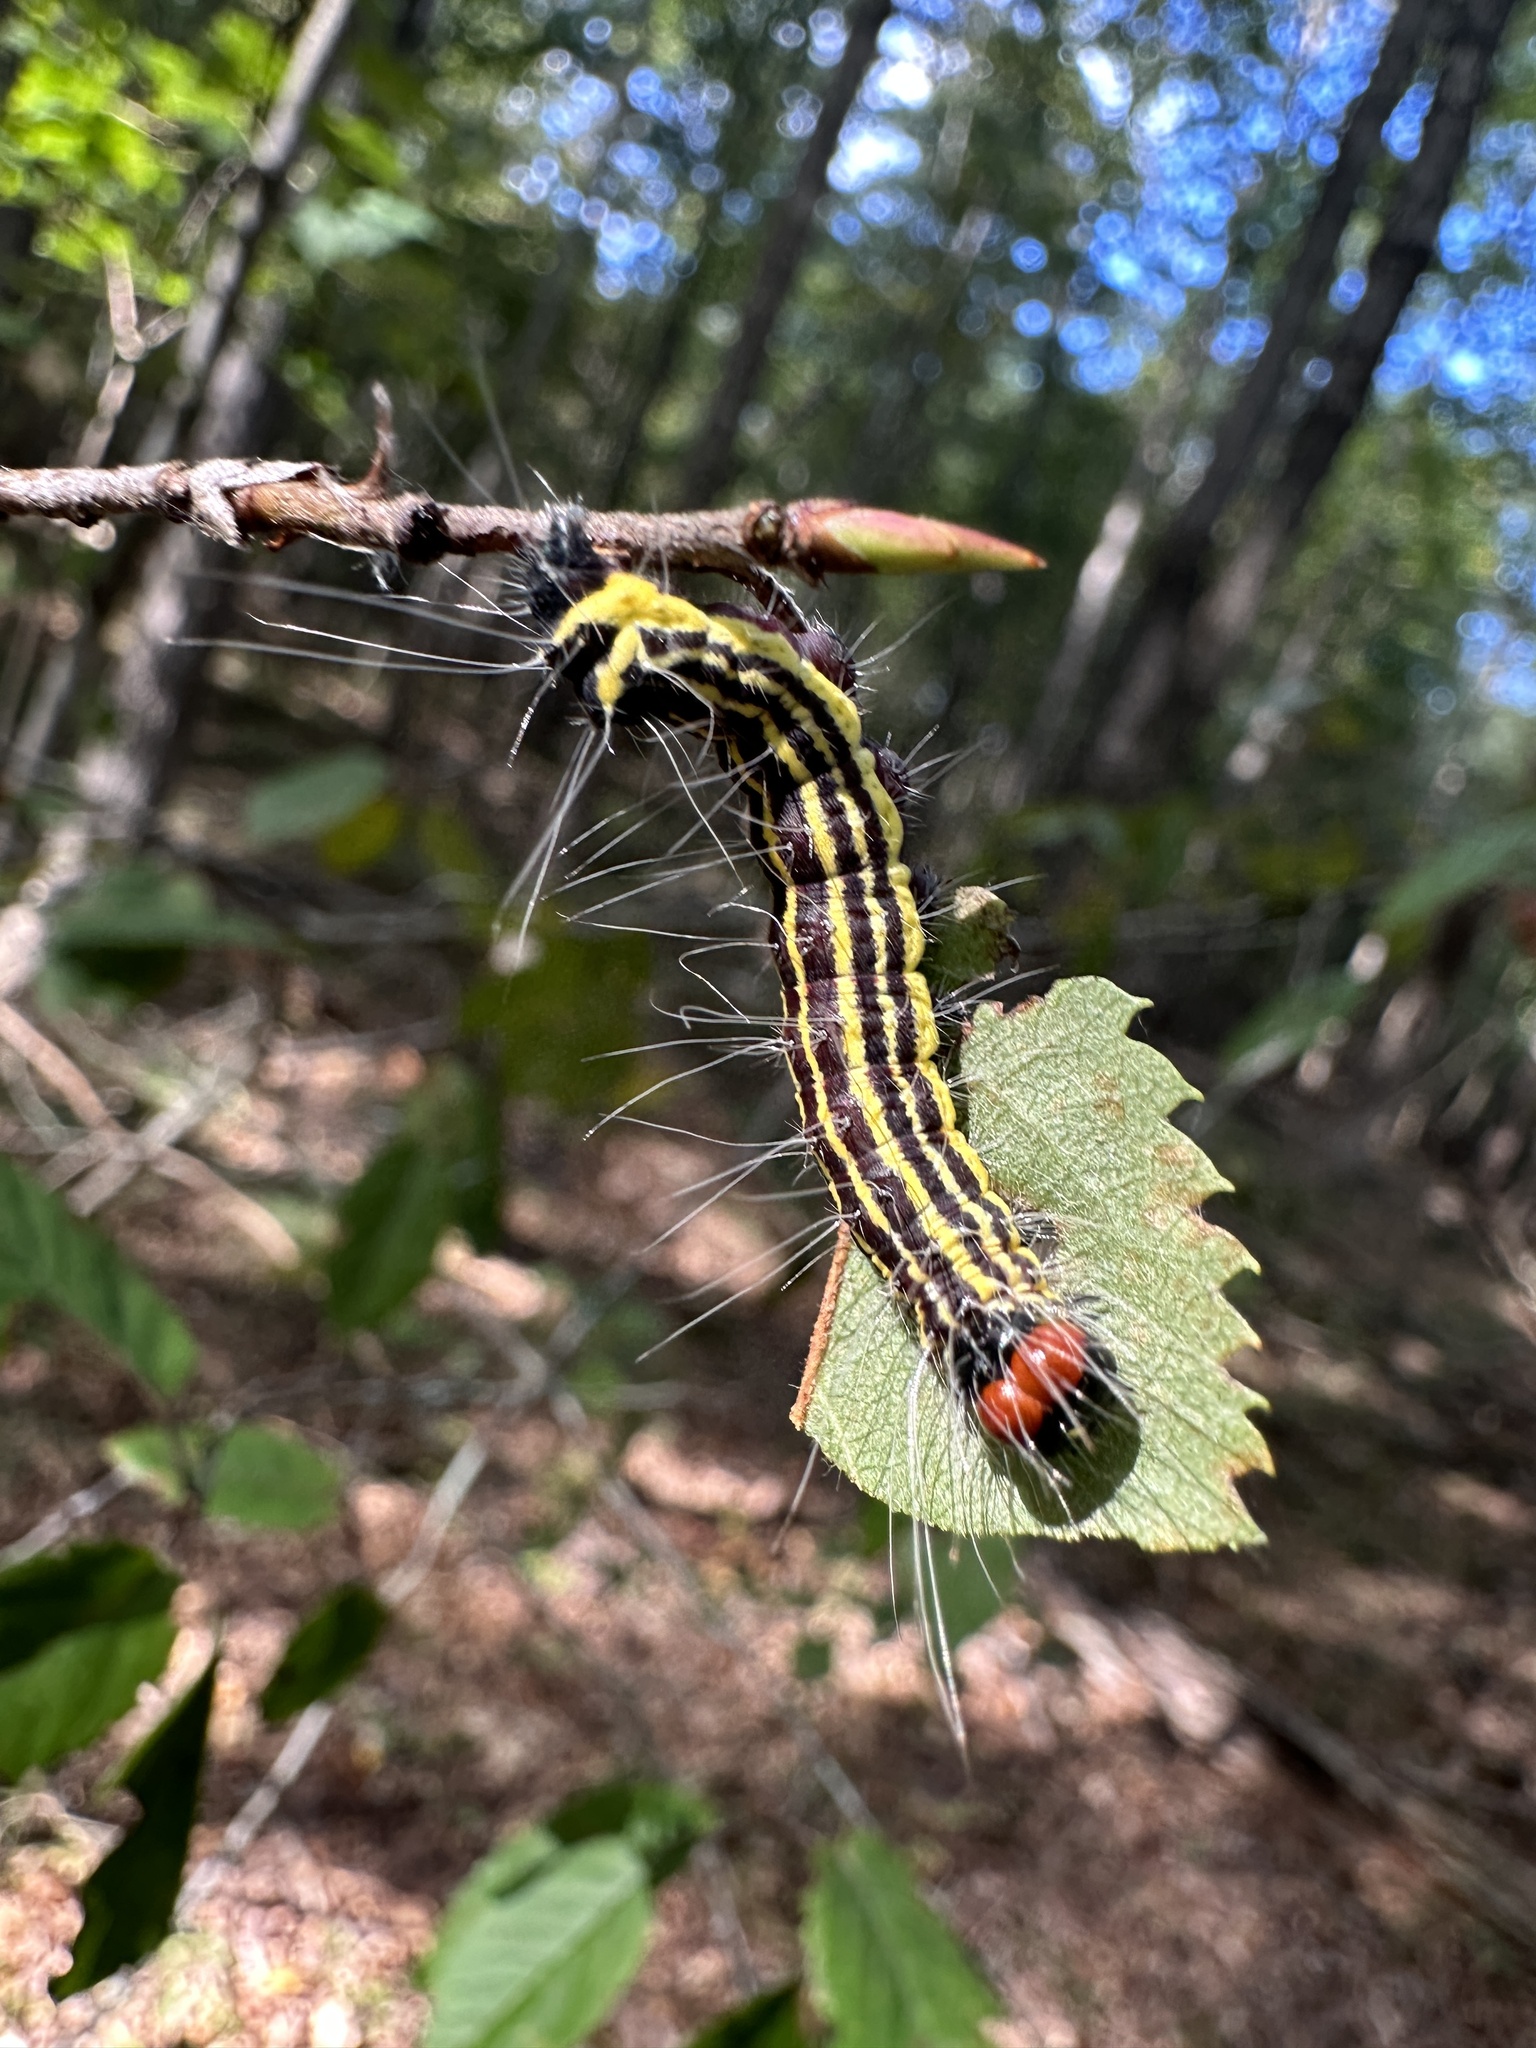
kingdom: Animalia
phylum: Arthropoda
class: Insecta
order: Lepidoptera
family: Noctuidae
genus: Acronicta
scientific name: Acronicta radcliffei
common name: Radcliffe's dagger
